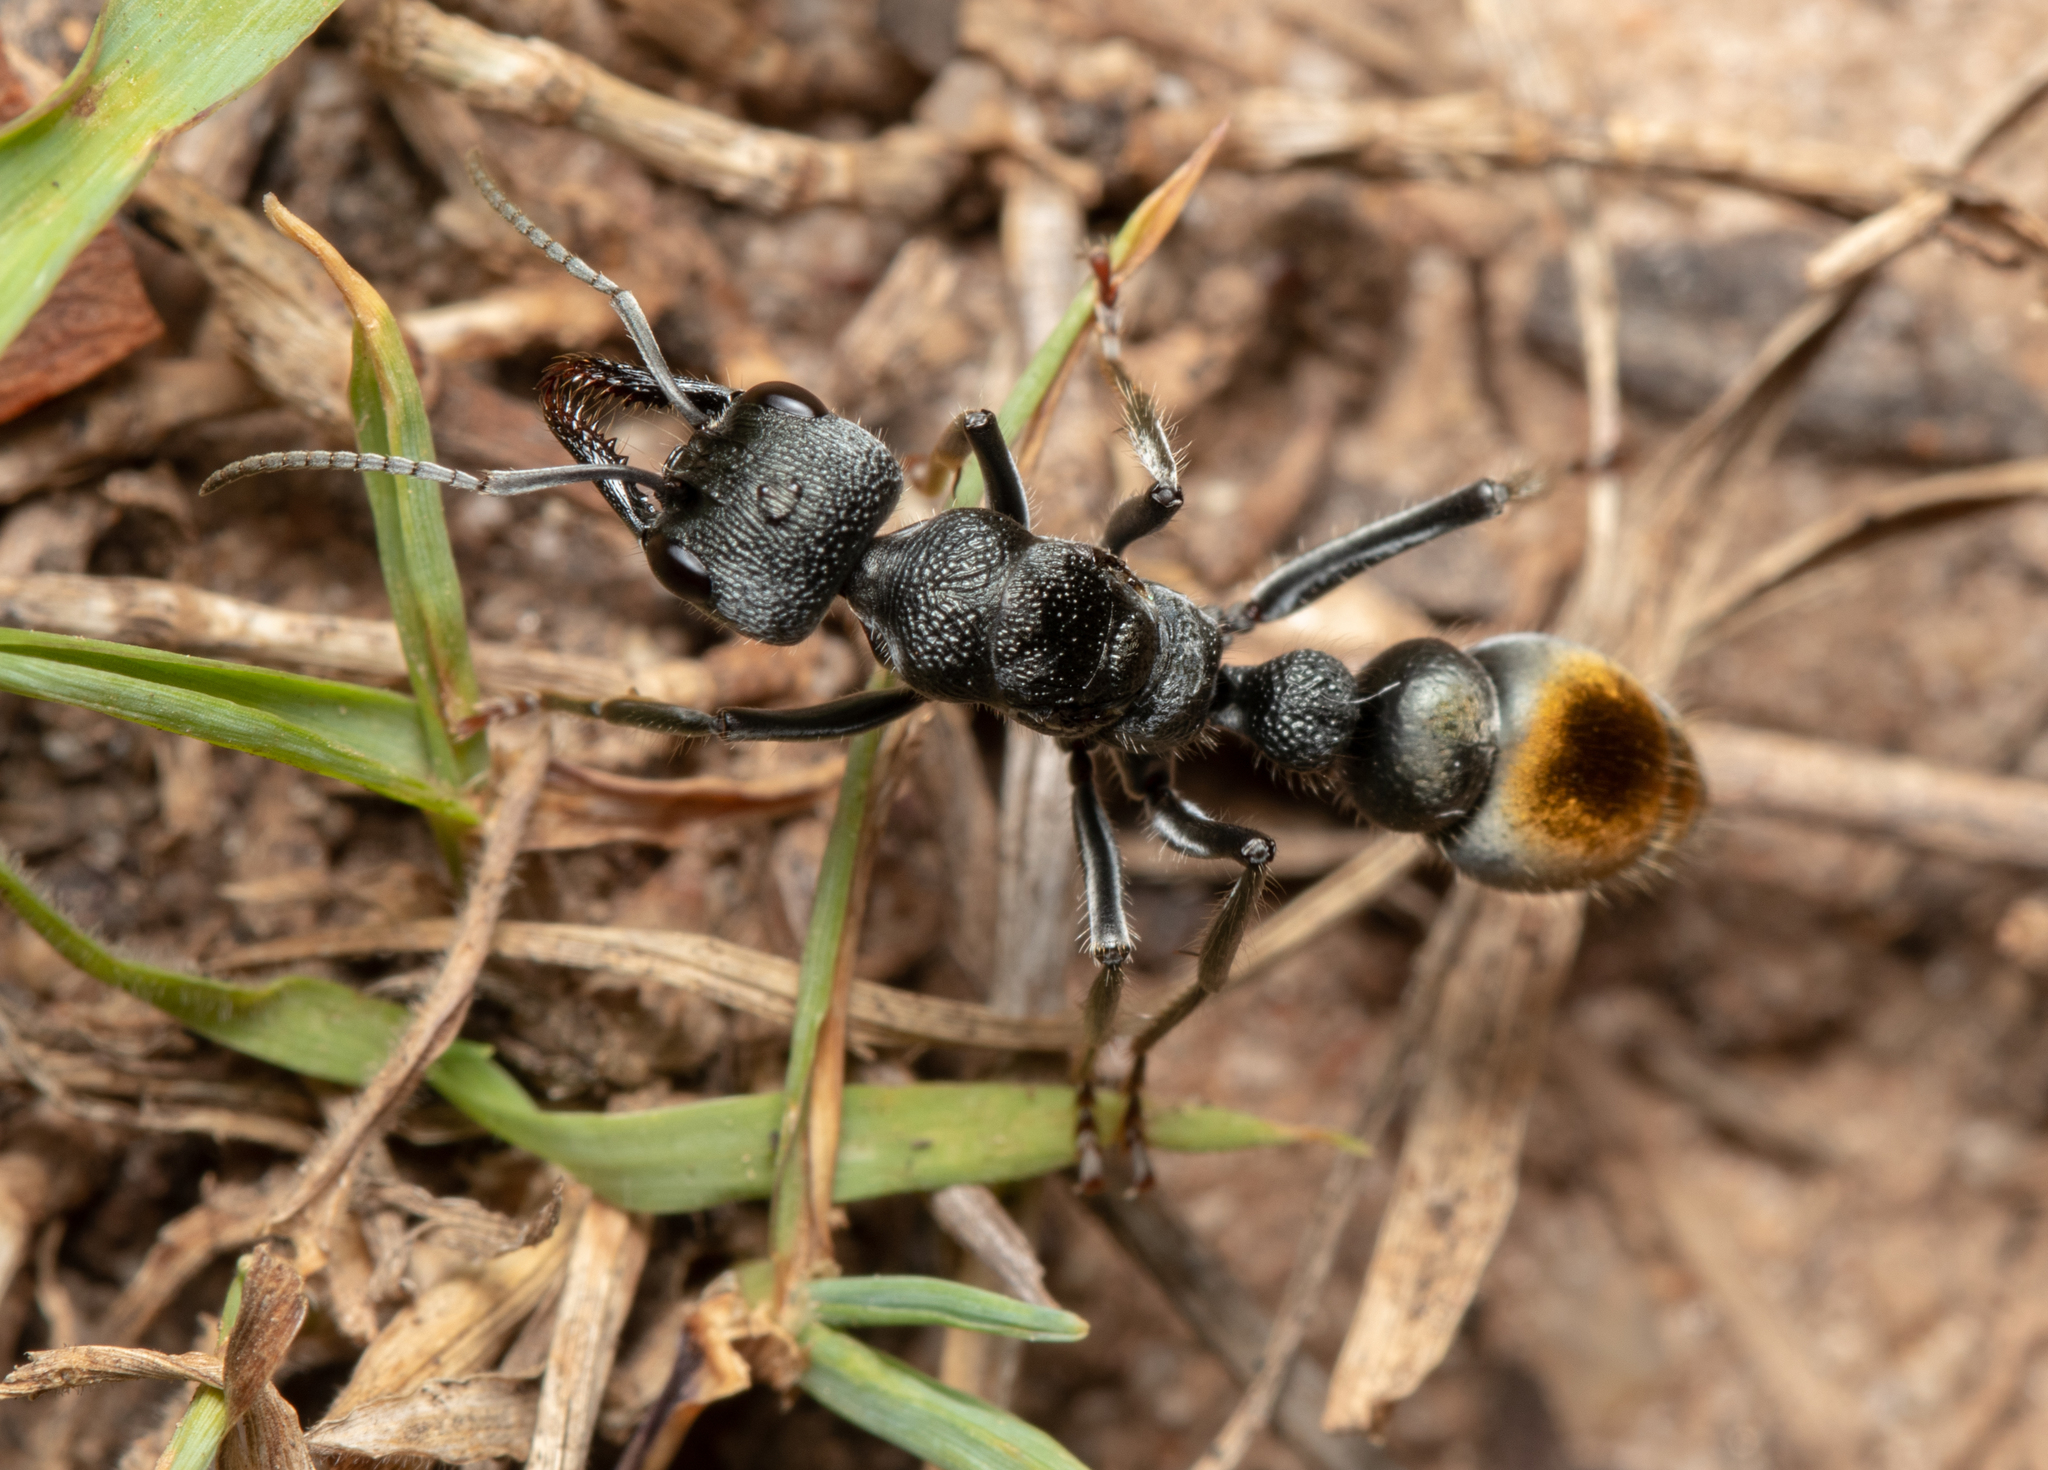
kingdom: Animalia
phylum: Arthropoda
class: Insecta
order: Hymenoptera
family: Formicidae
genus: Myrmecia
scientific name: Myrmecia gilberti
